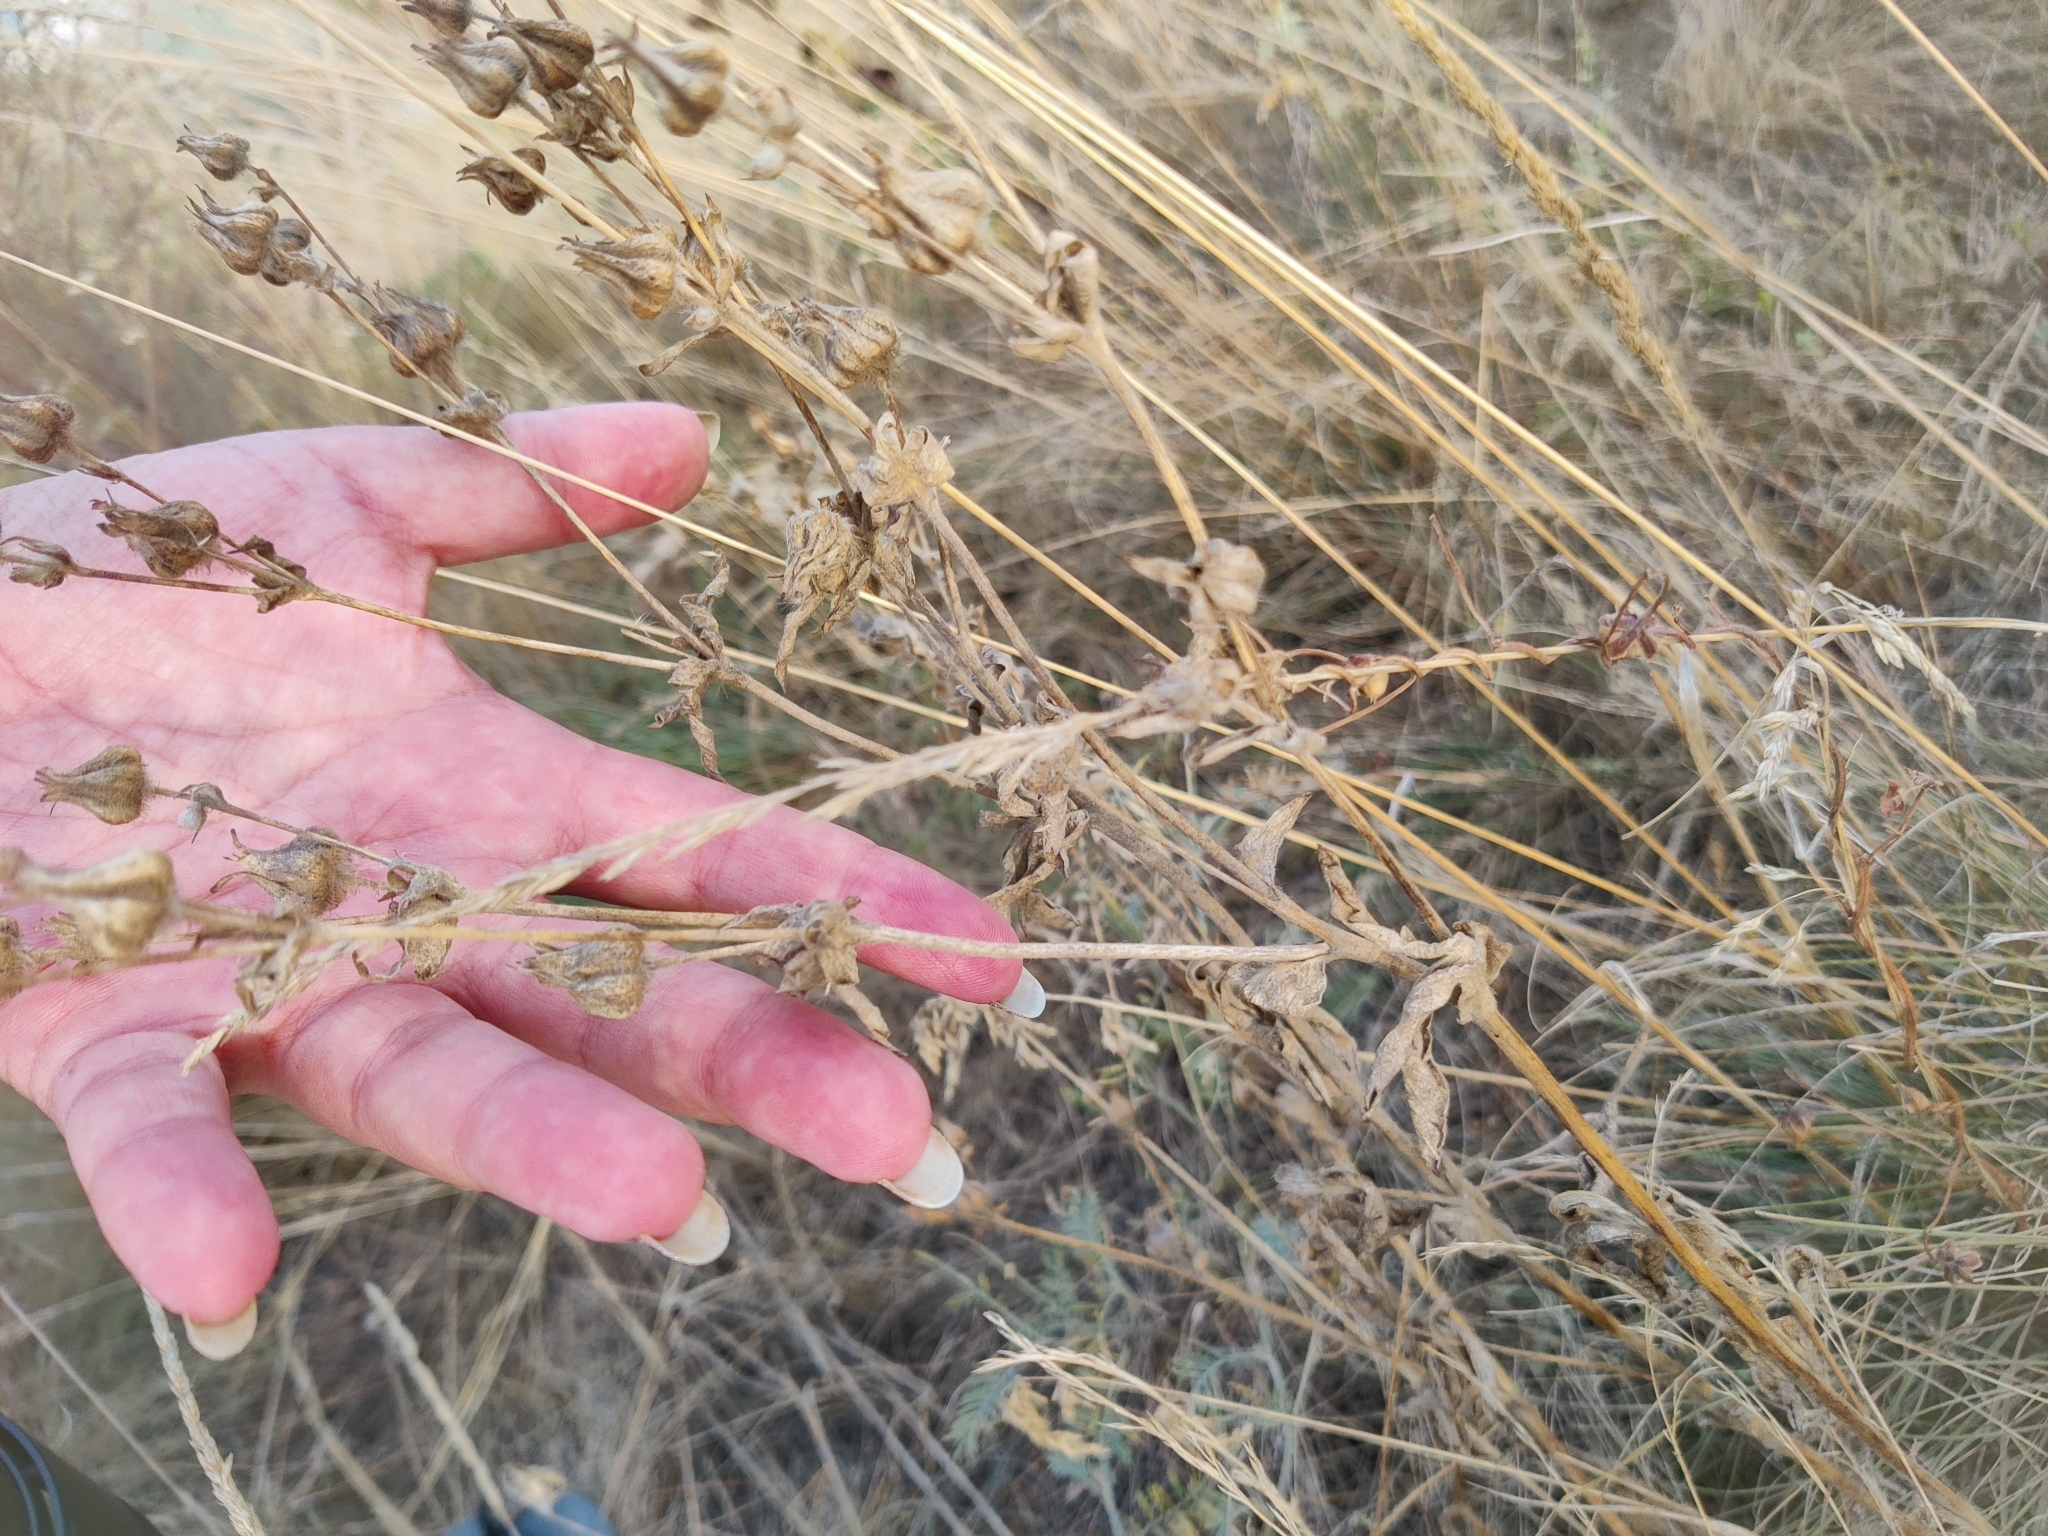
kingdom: Plantae
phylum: Tracheophyta
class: Magnoliopsida
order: Rosales
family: Rosaceae
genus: Potentilla
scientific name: Potentilla astracanica
